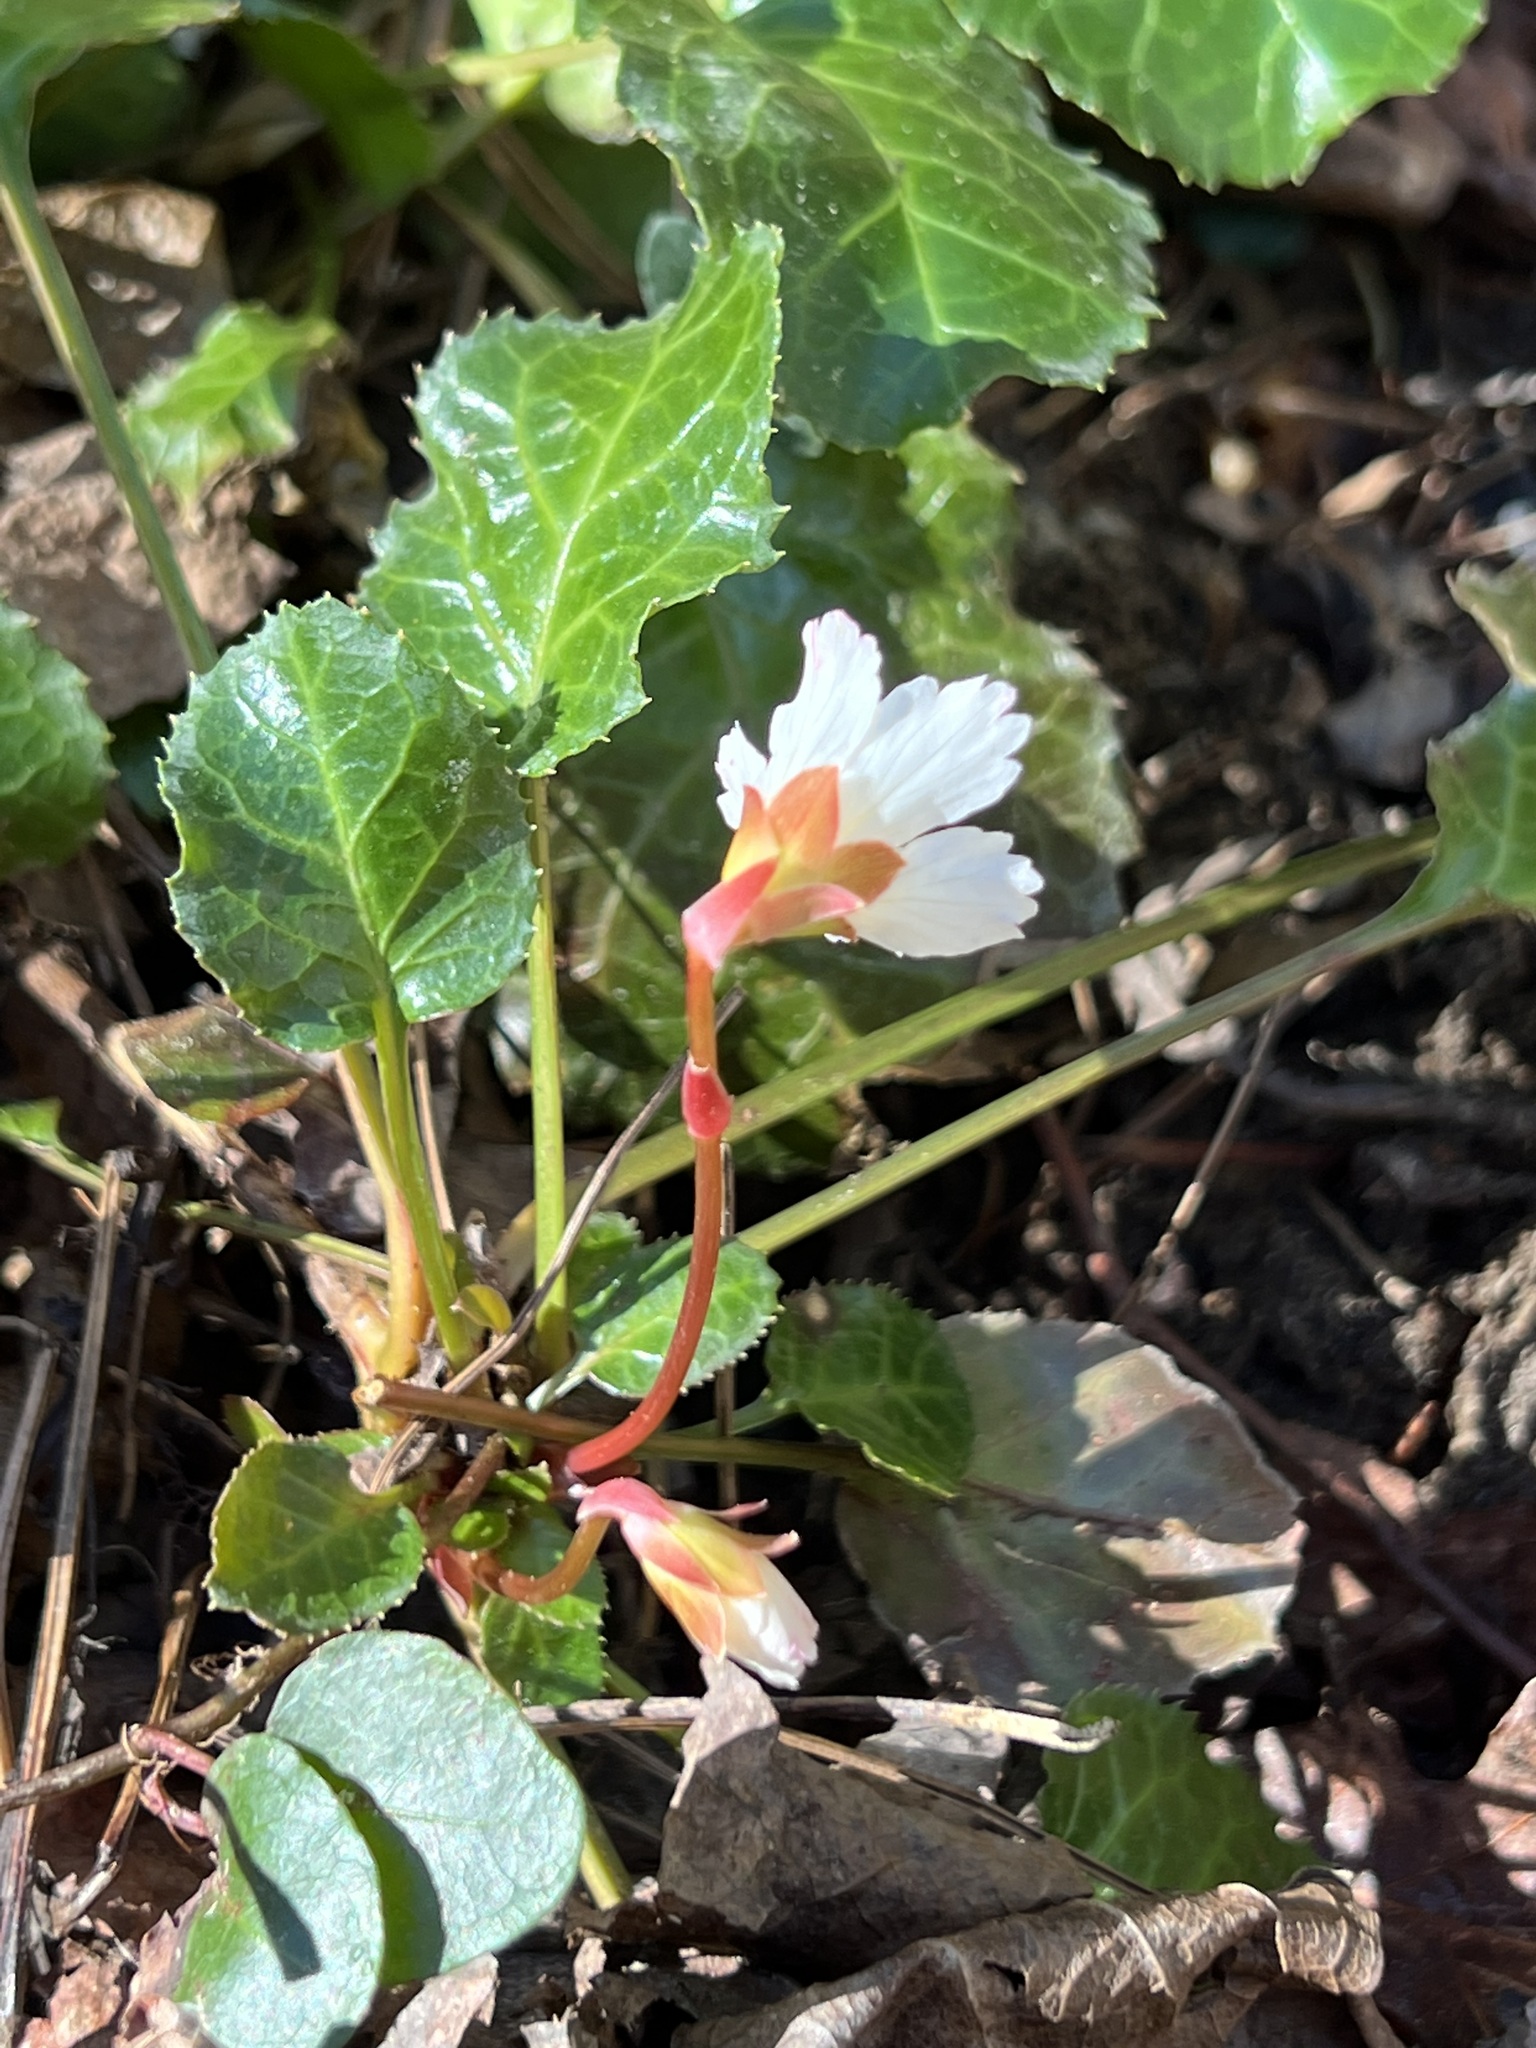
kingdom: Plantae
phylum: Tracheophyta
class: Magnoliopsida
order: Ericales
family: Diapensiaceae
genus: Shortia
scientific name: Shortia galacifolia
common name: Shortia
